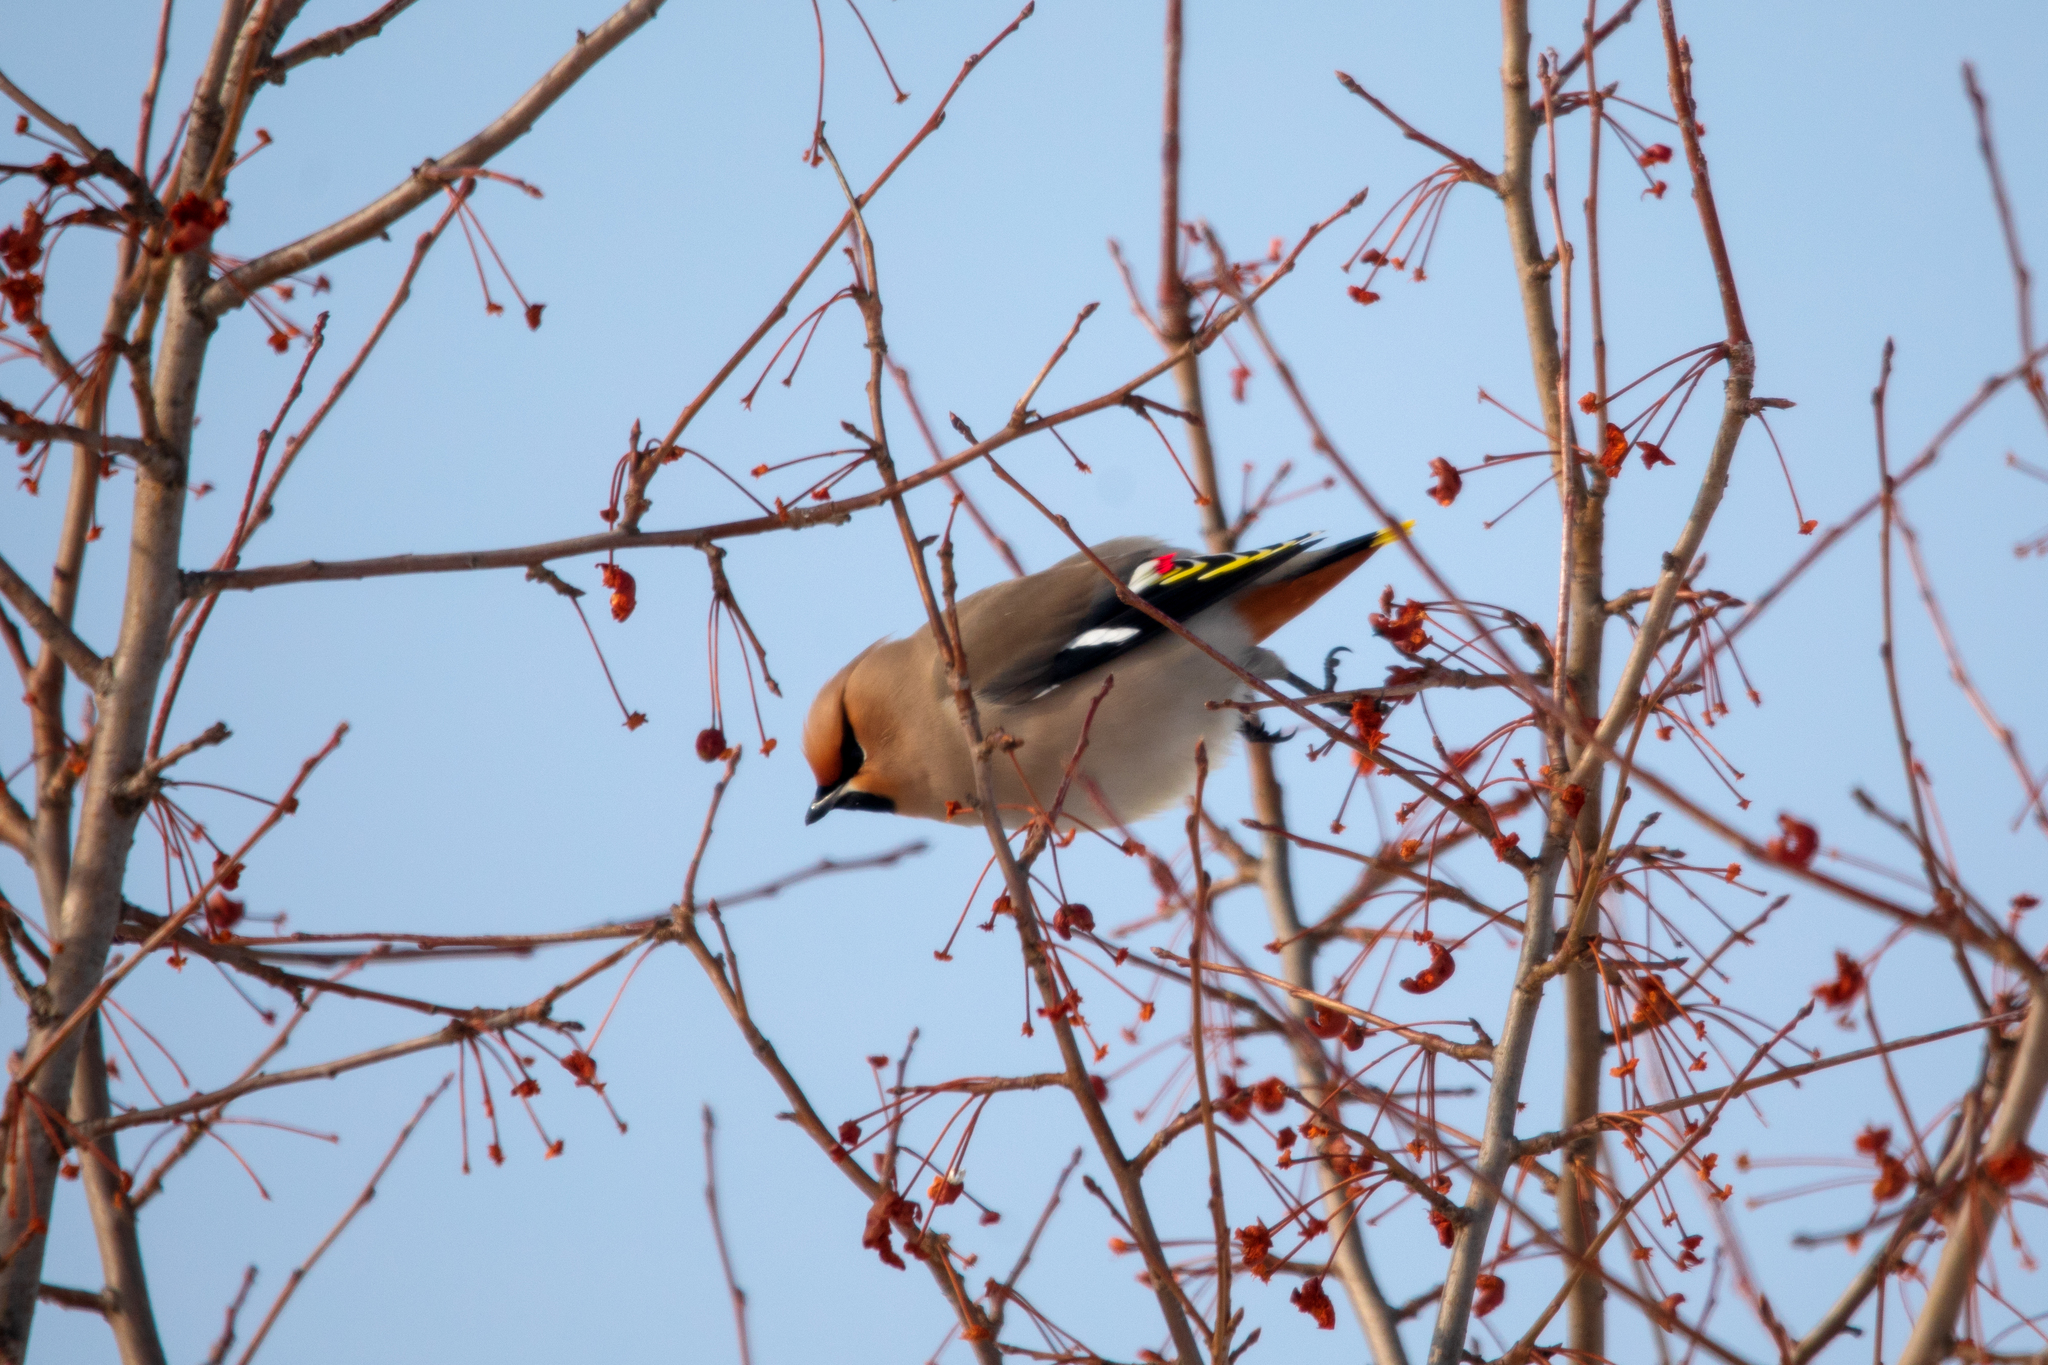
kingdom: Animalia
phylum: Chordata
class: Aves
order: Passeriformes
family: Bombycillidae
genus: Bombycilla
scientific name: Bombycilla garrulus
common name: Bohemian waxwing
